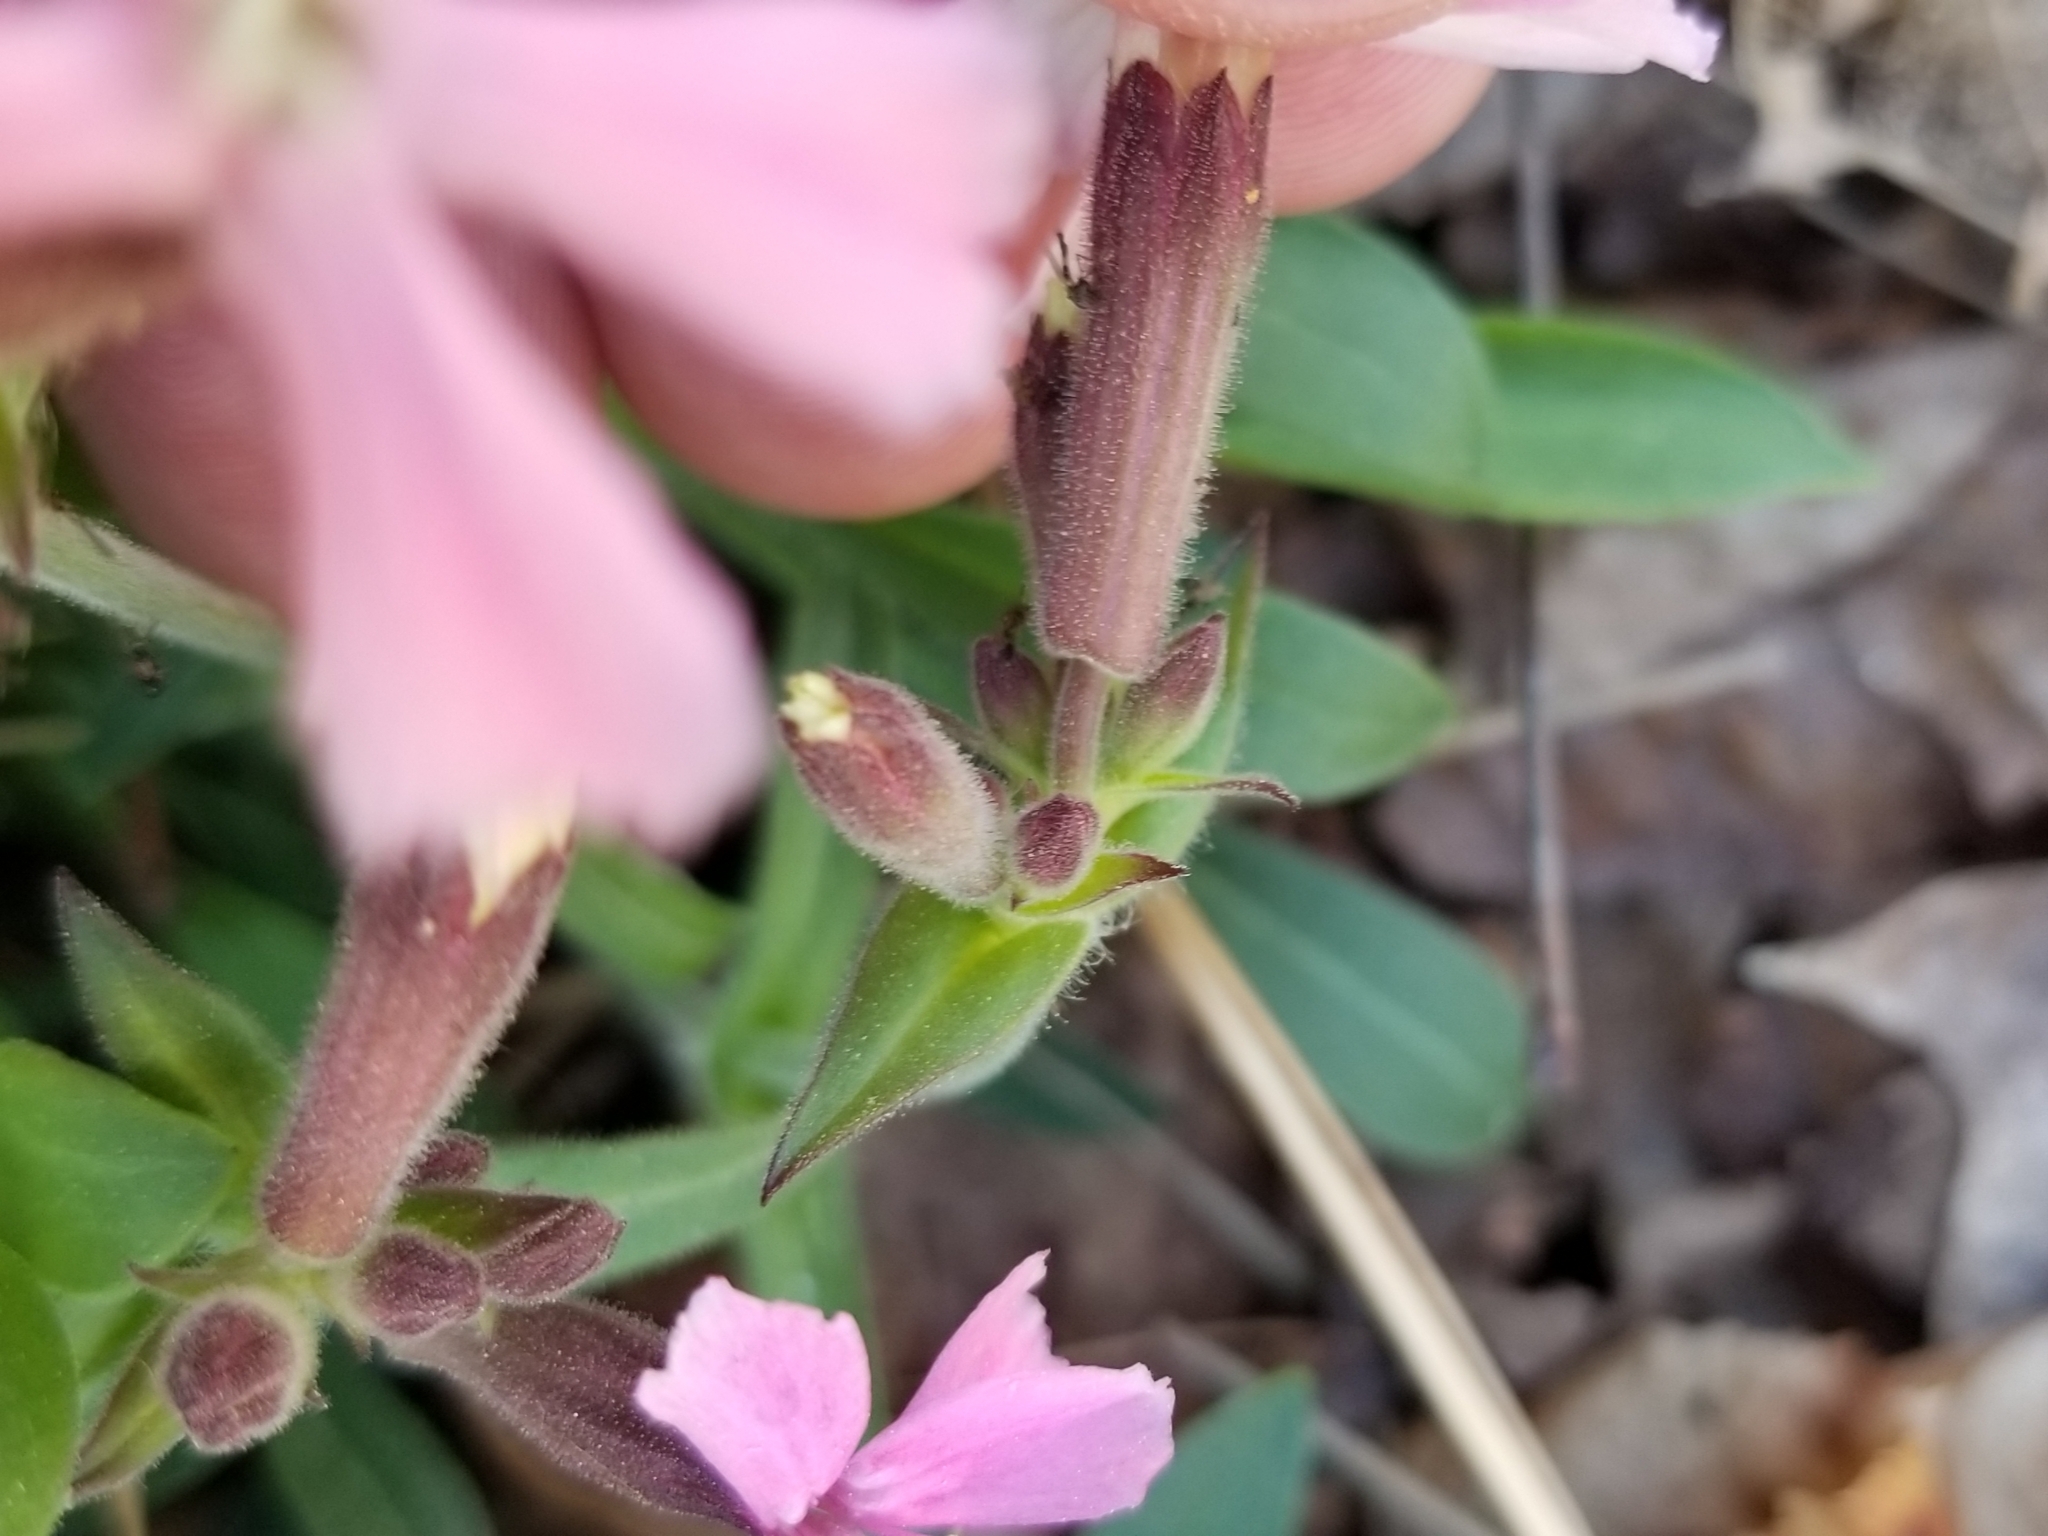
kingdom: Plantae
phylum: Tracheophyta
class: Magnoliopsida
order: Caryophyllales
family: Caryophyllaceae
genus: Silene
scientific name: Silene caroliniana
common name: Sticky catchfly
